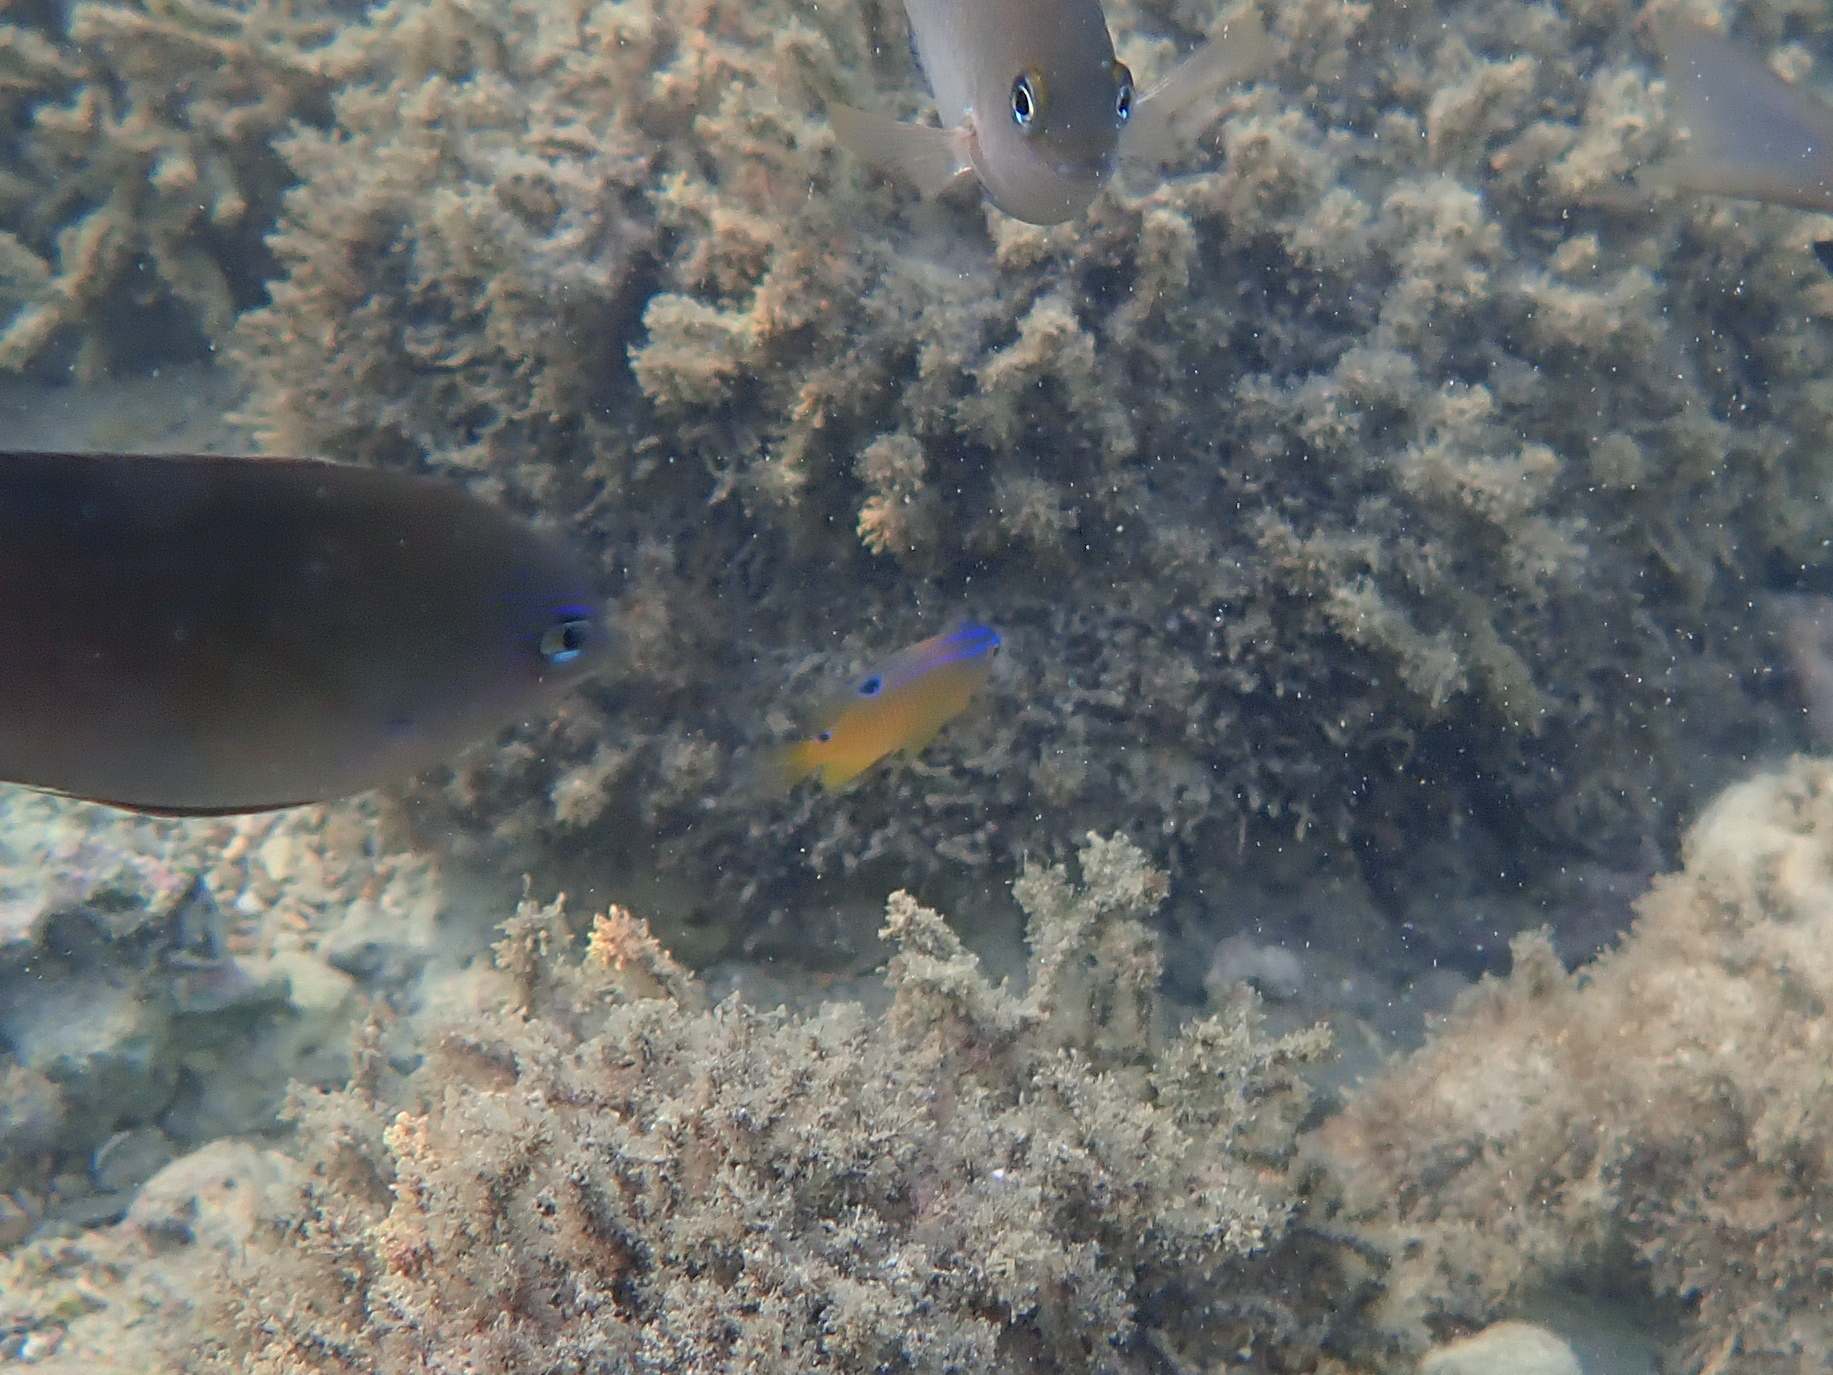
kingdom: Animalia
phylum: Chordata
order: Perciformes
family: Pomacentridae
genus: Stegastes
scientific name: Stegastes variabilis
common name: Cocoa damselfish
